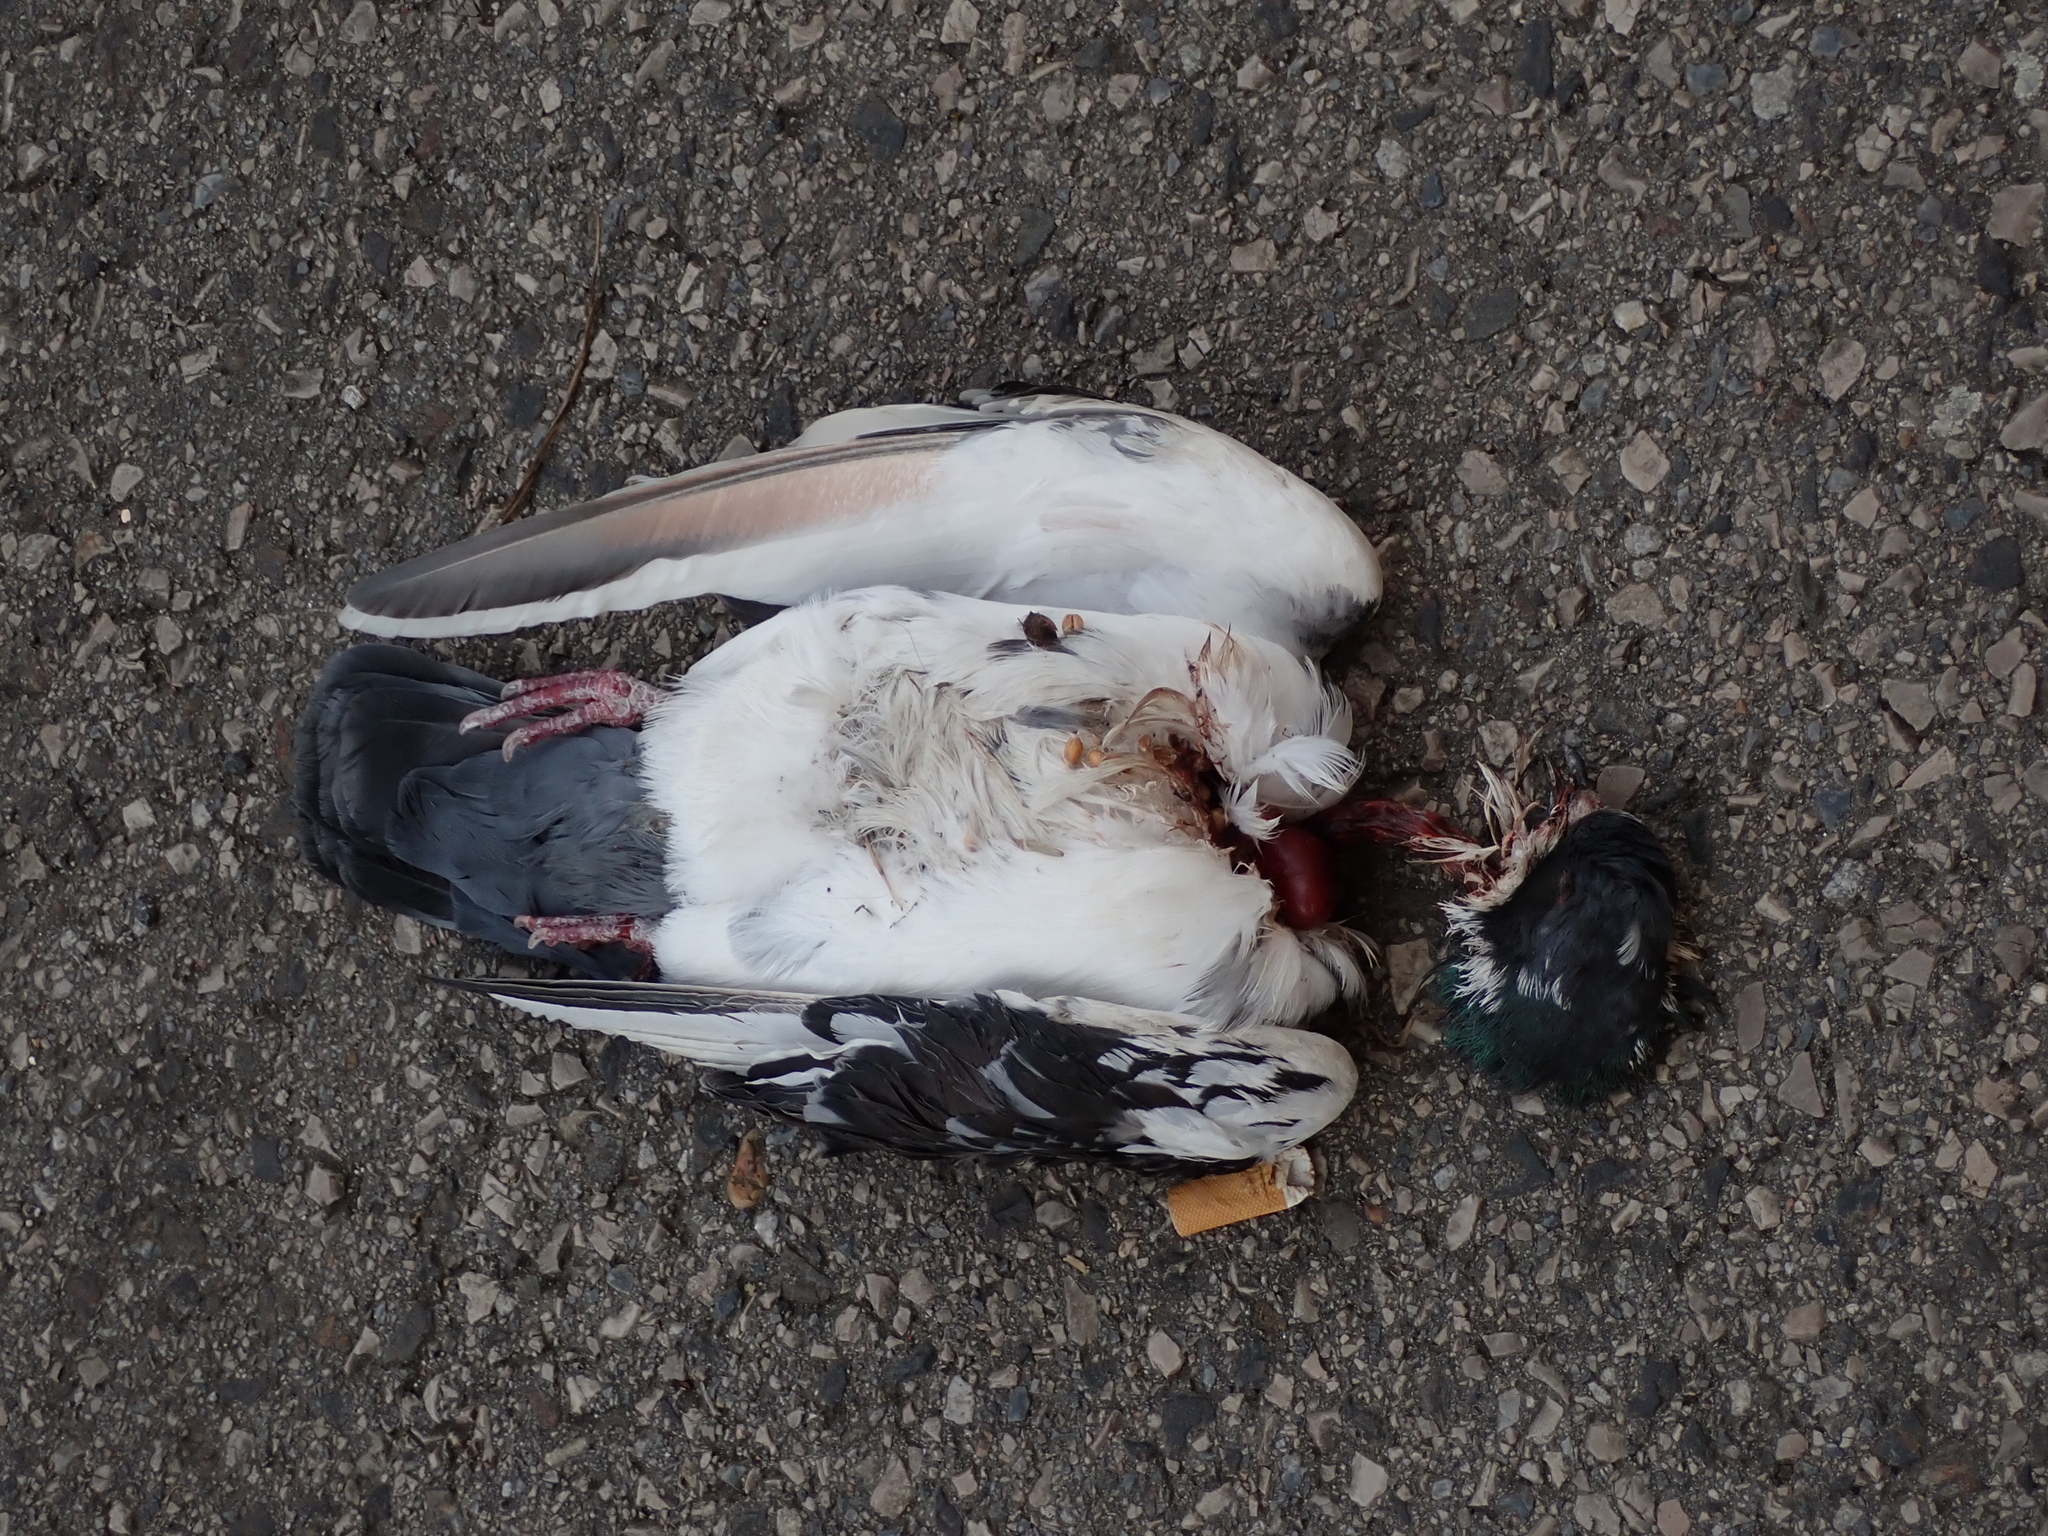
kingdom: Animalia
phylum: Chordata
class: Aves
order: Columbiformes
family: Columbidae
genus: Columba
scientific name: Columba livia
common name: Rock pigeon
